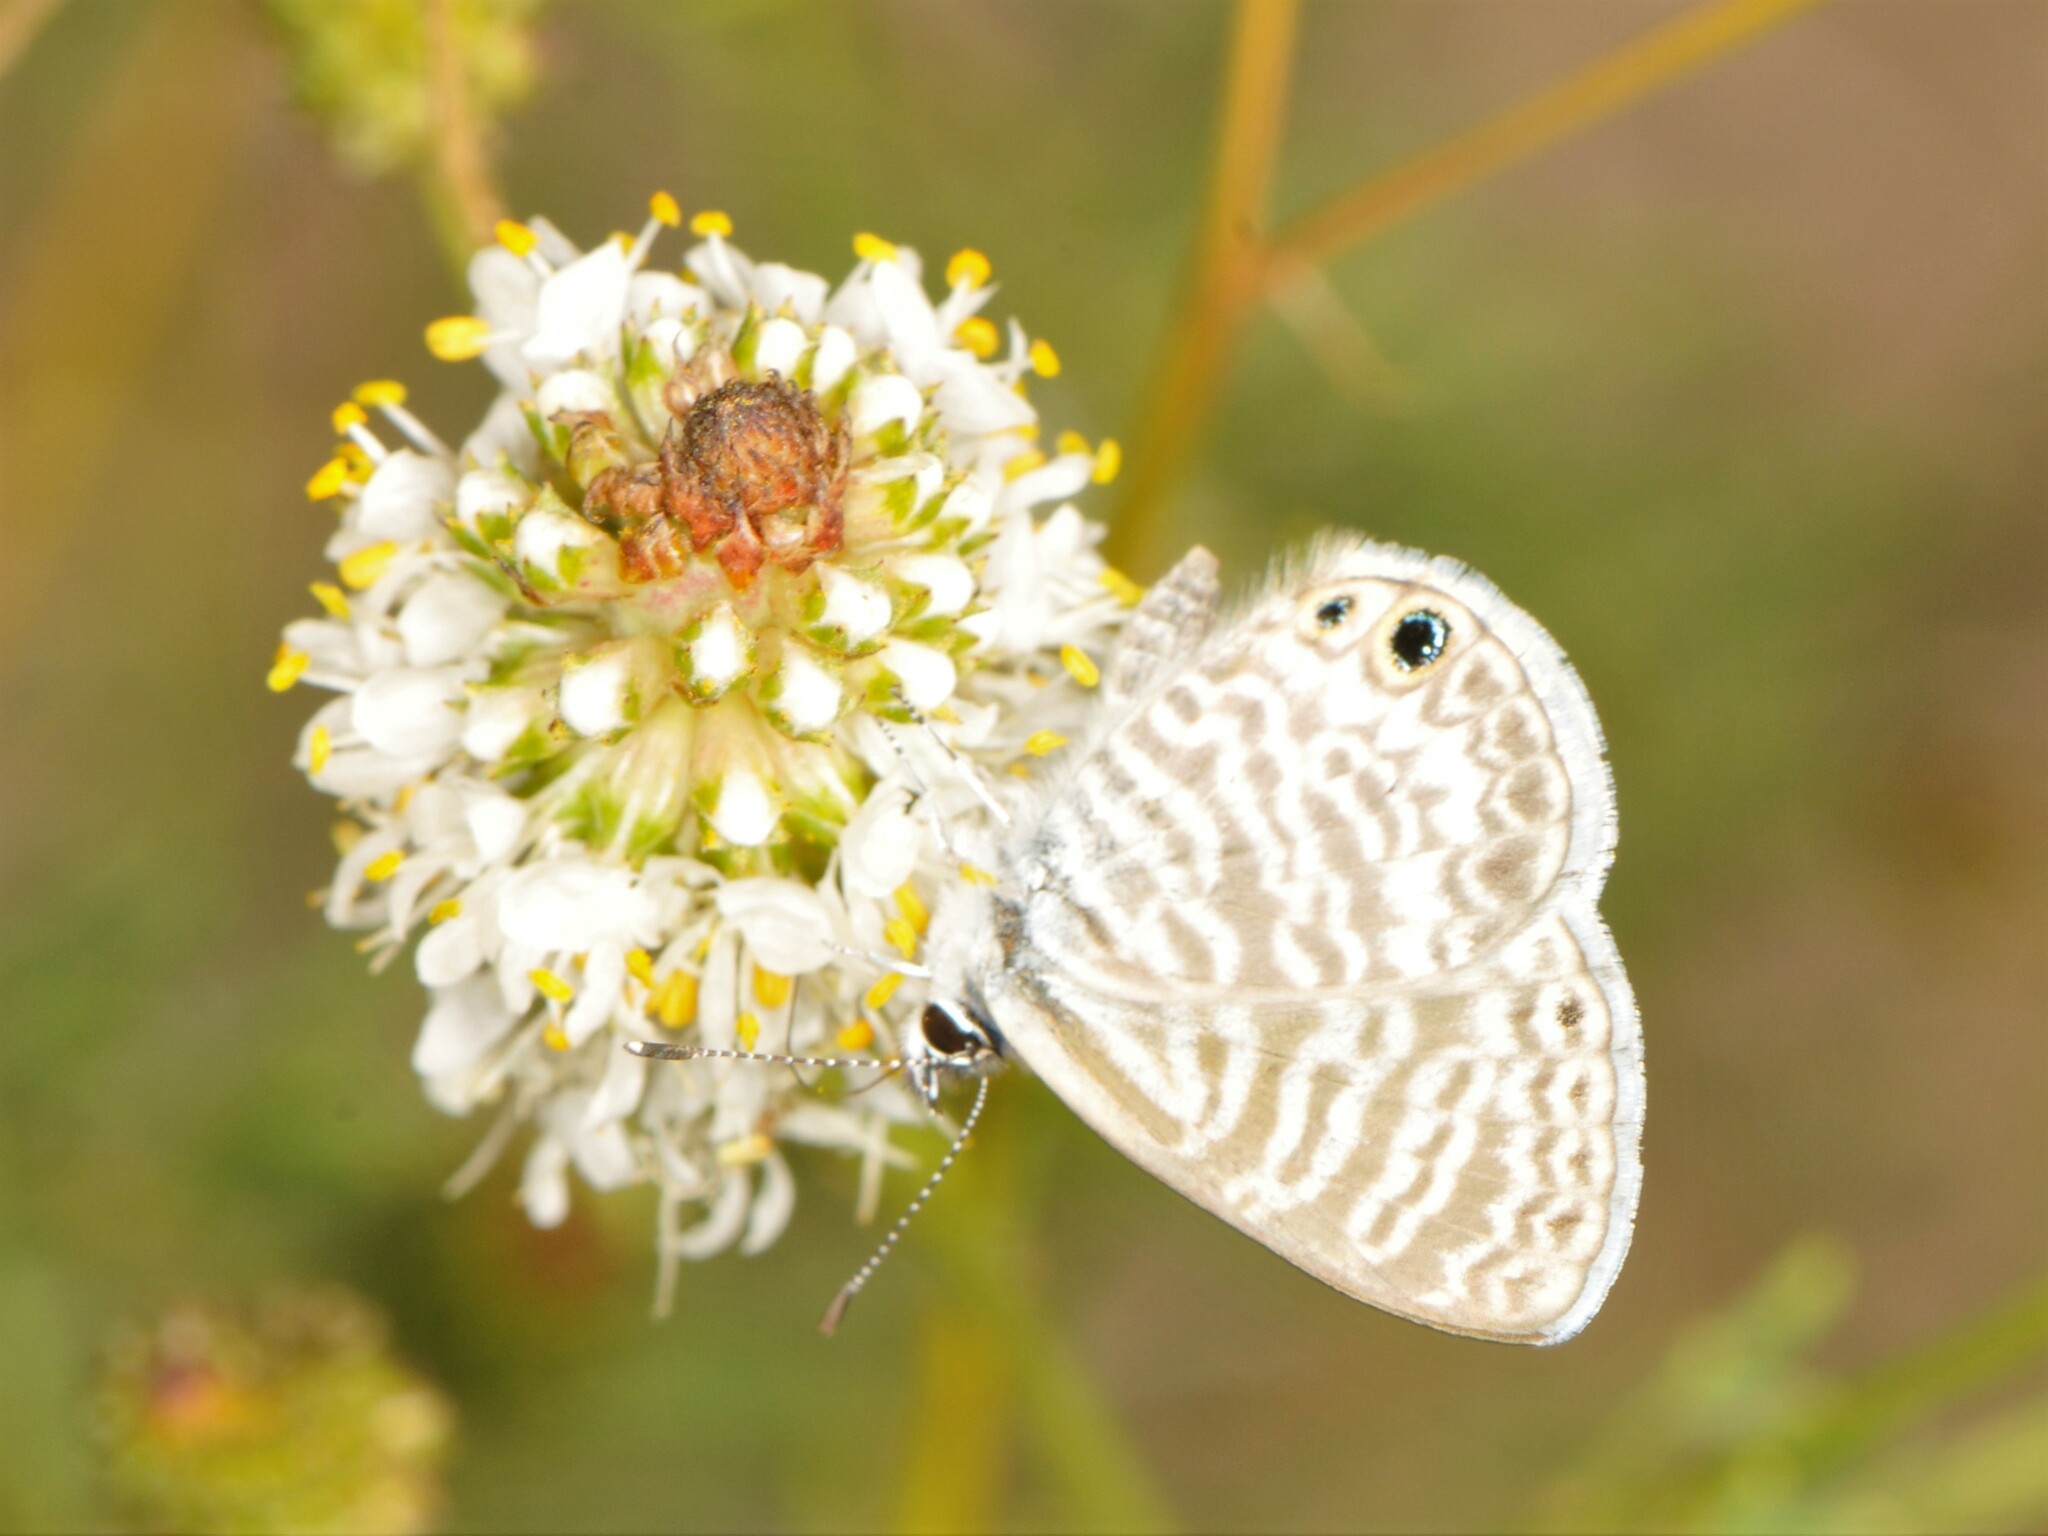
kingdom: Animalia
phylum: Arthropoda
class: Insecta
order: Lepidoptera
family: Lycaenidae
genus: Leptotes
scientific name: Leptotes marina
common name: Marine blue
